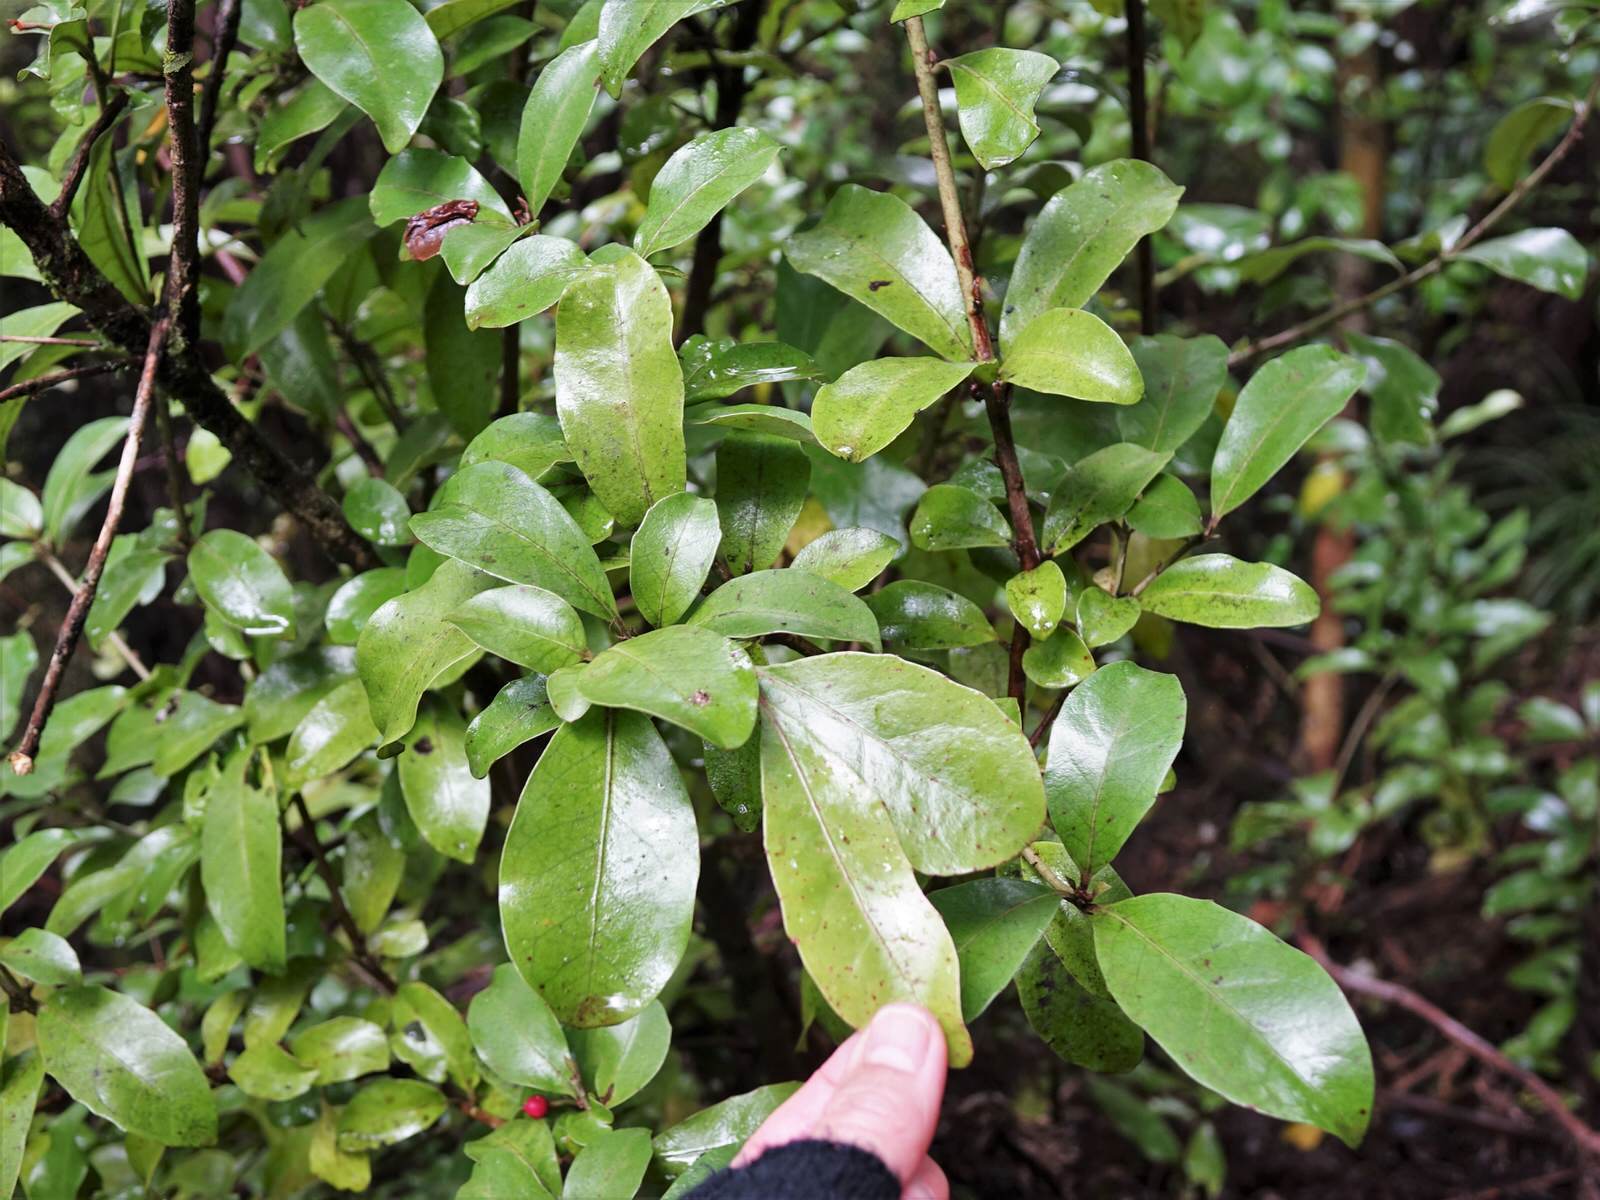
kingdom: Plantae
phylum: Tracheophyta
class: Magnoliopsida
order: Asterales
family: Alseuosmiaceae
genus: Alseuosmia
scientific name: Alseuosmia macrophylla
